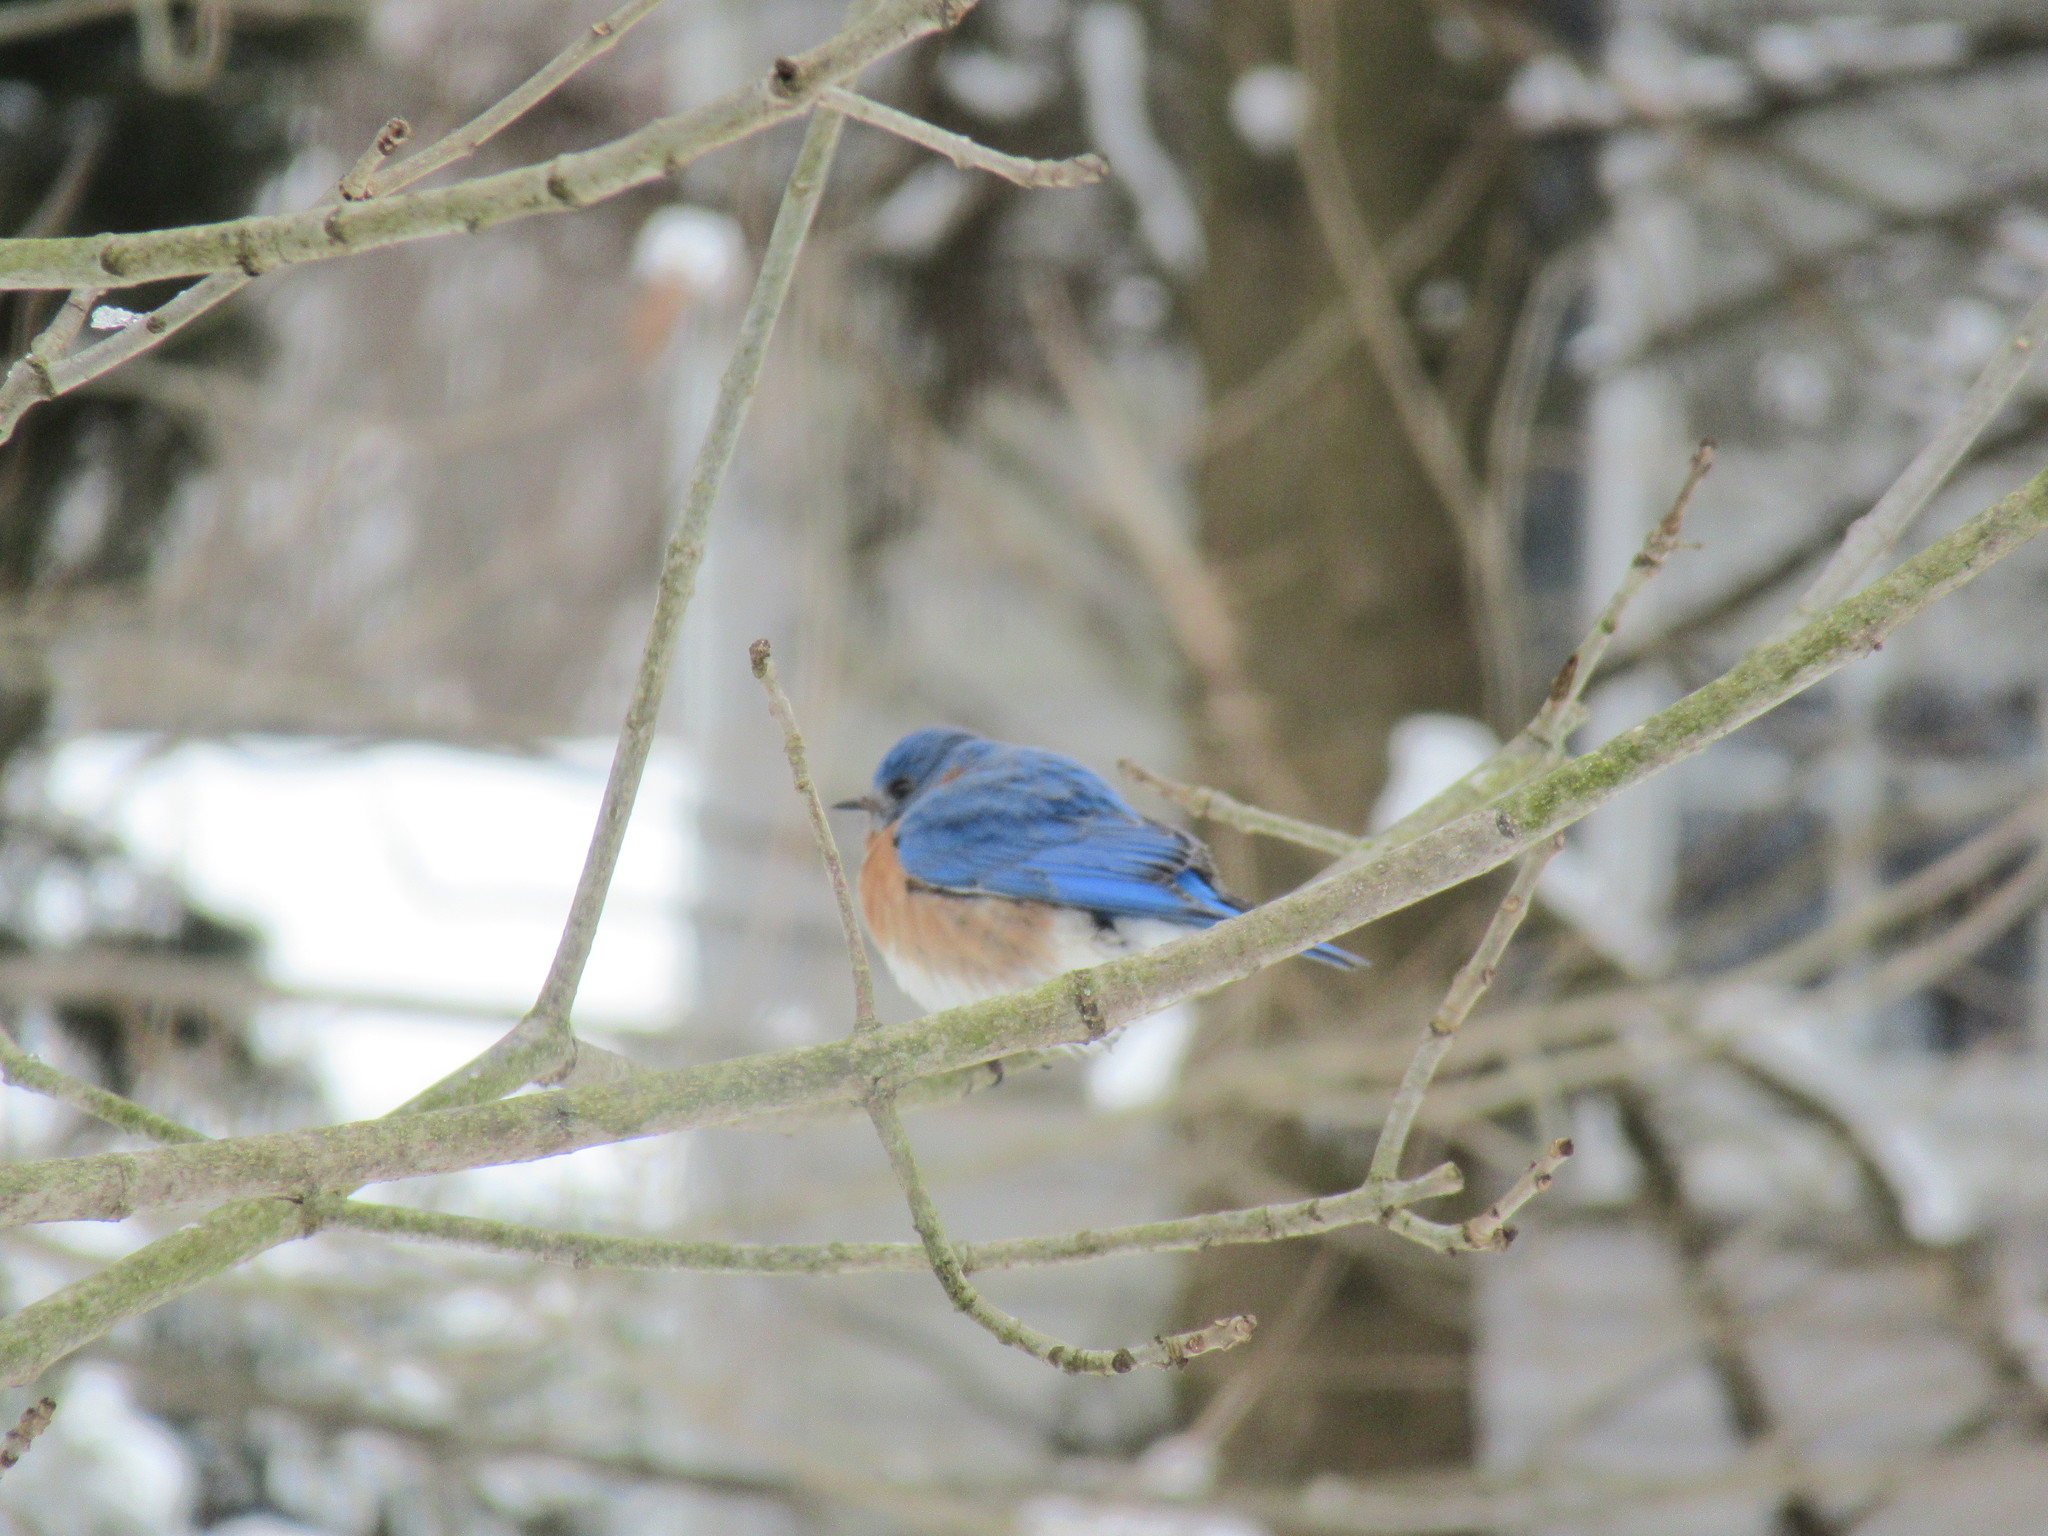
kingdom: Animalia
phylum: Chordata
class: Aves
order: Passeriformes
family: Turdidae
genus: Sialia
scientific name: Sialia sialis
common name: Eastern bluebird
